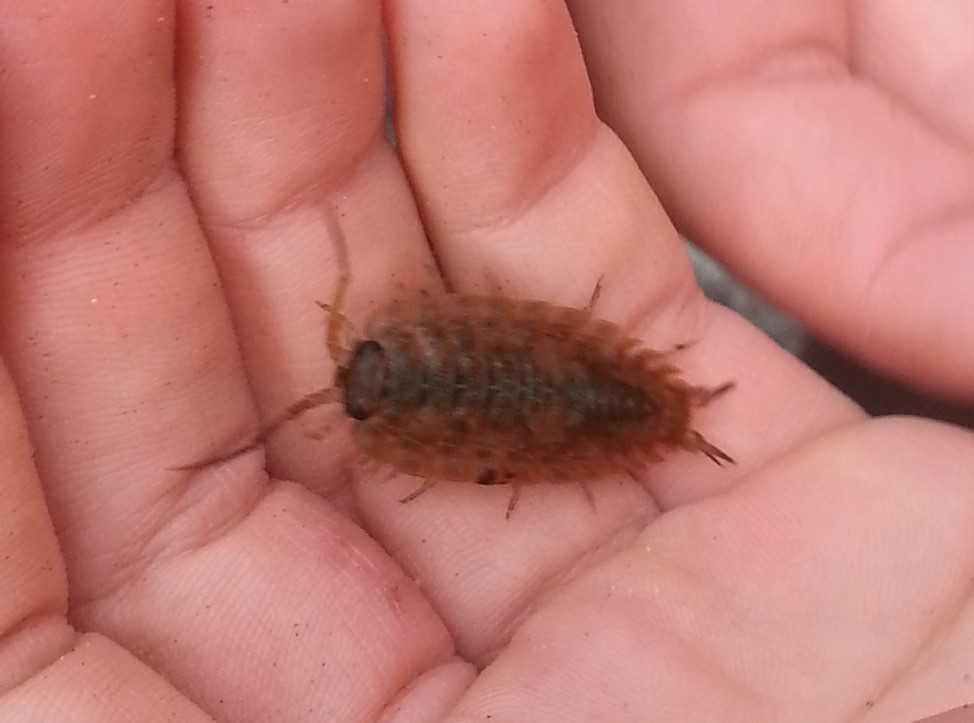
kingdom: Animalia
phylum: Arthropoda
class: Malacostraca
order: Isopoda
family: Ligiidae
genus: Ligia
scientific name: Ligia pallasii
